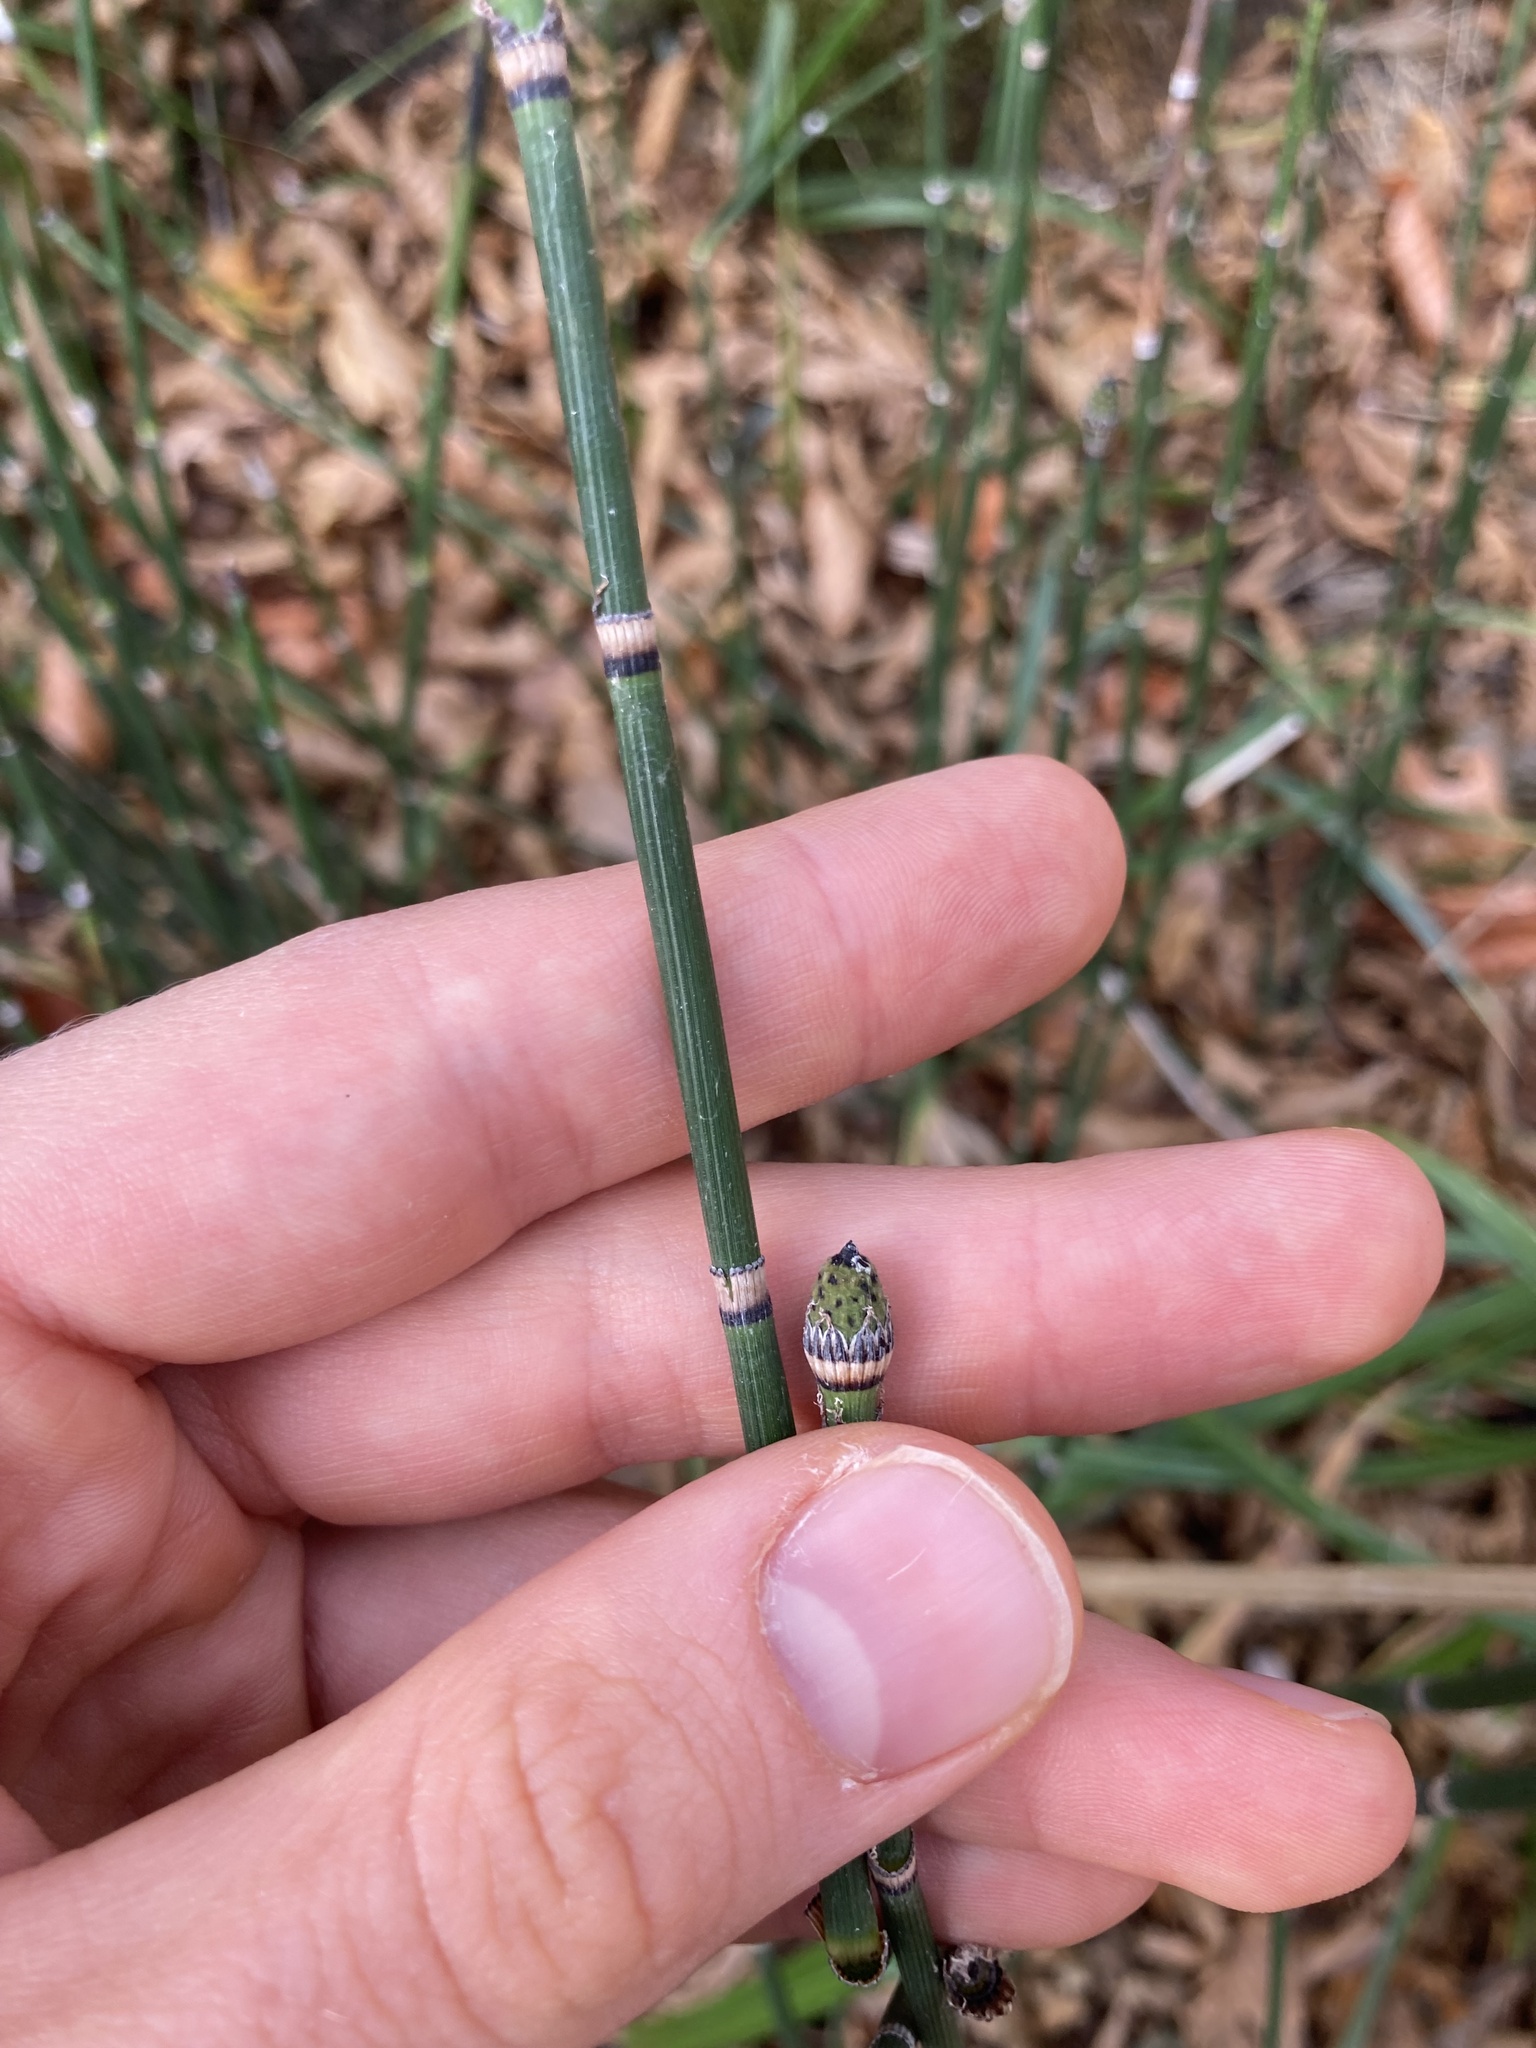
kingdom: Plantae
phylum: Tracheophyta
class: Polypodiopsida
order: Equisetales
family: Equisetaceae
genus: Equisetum
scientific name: Equisetum hyemale
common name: Rough horsetail
